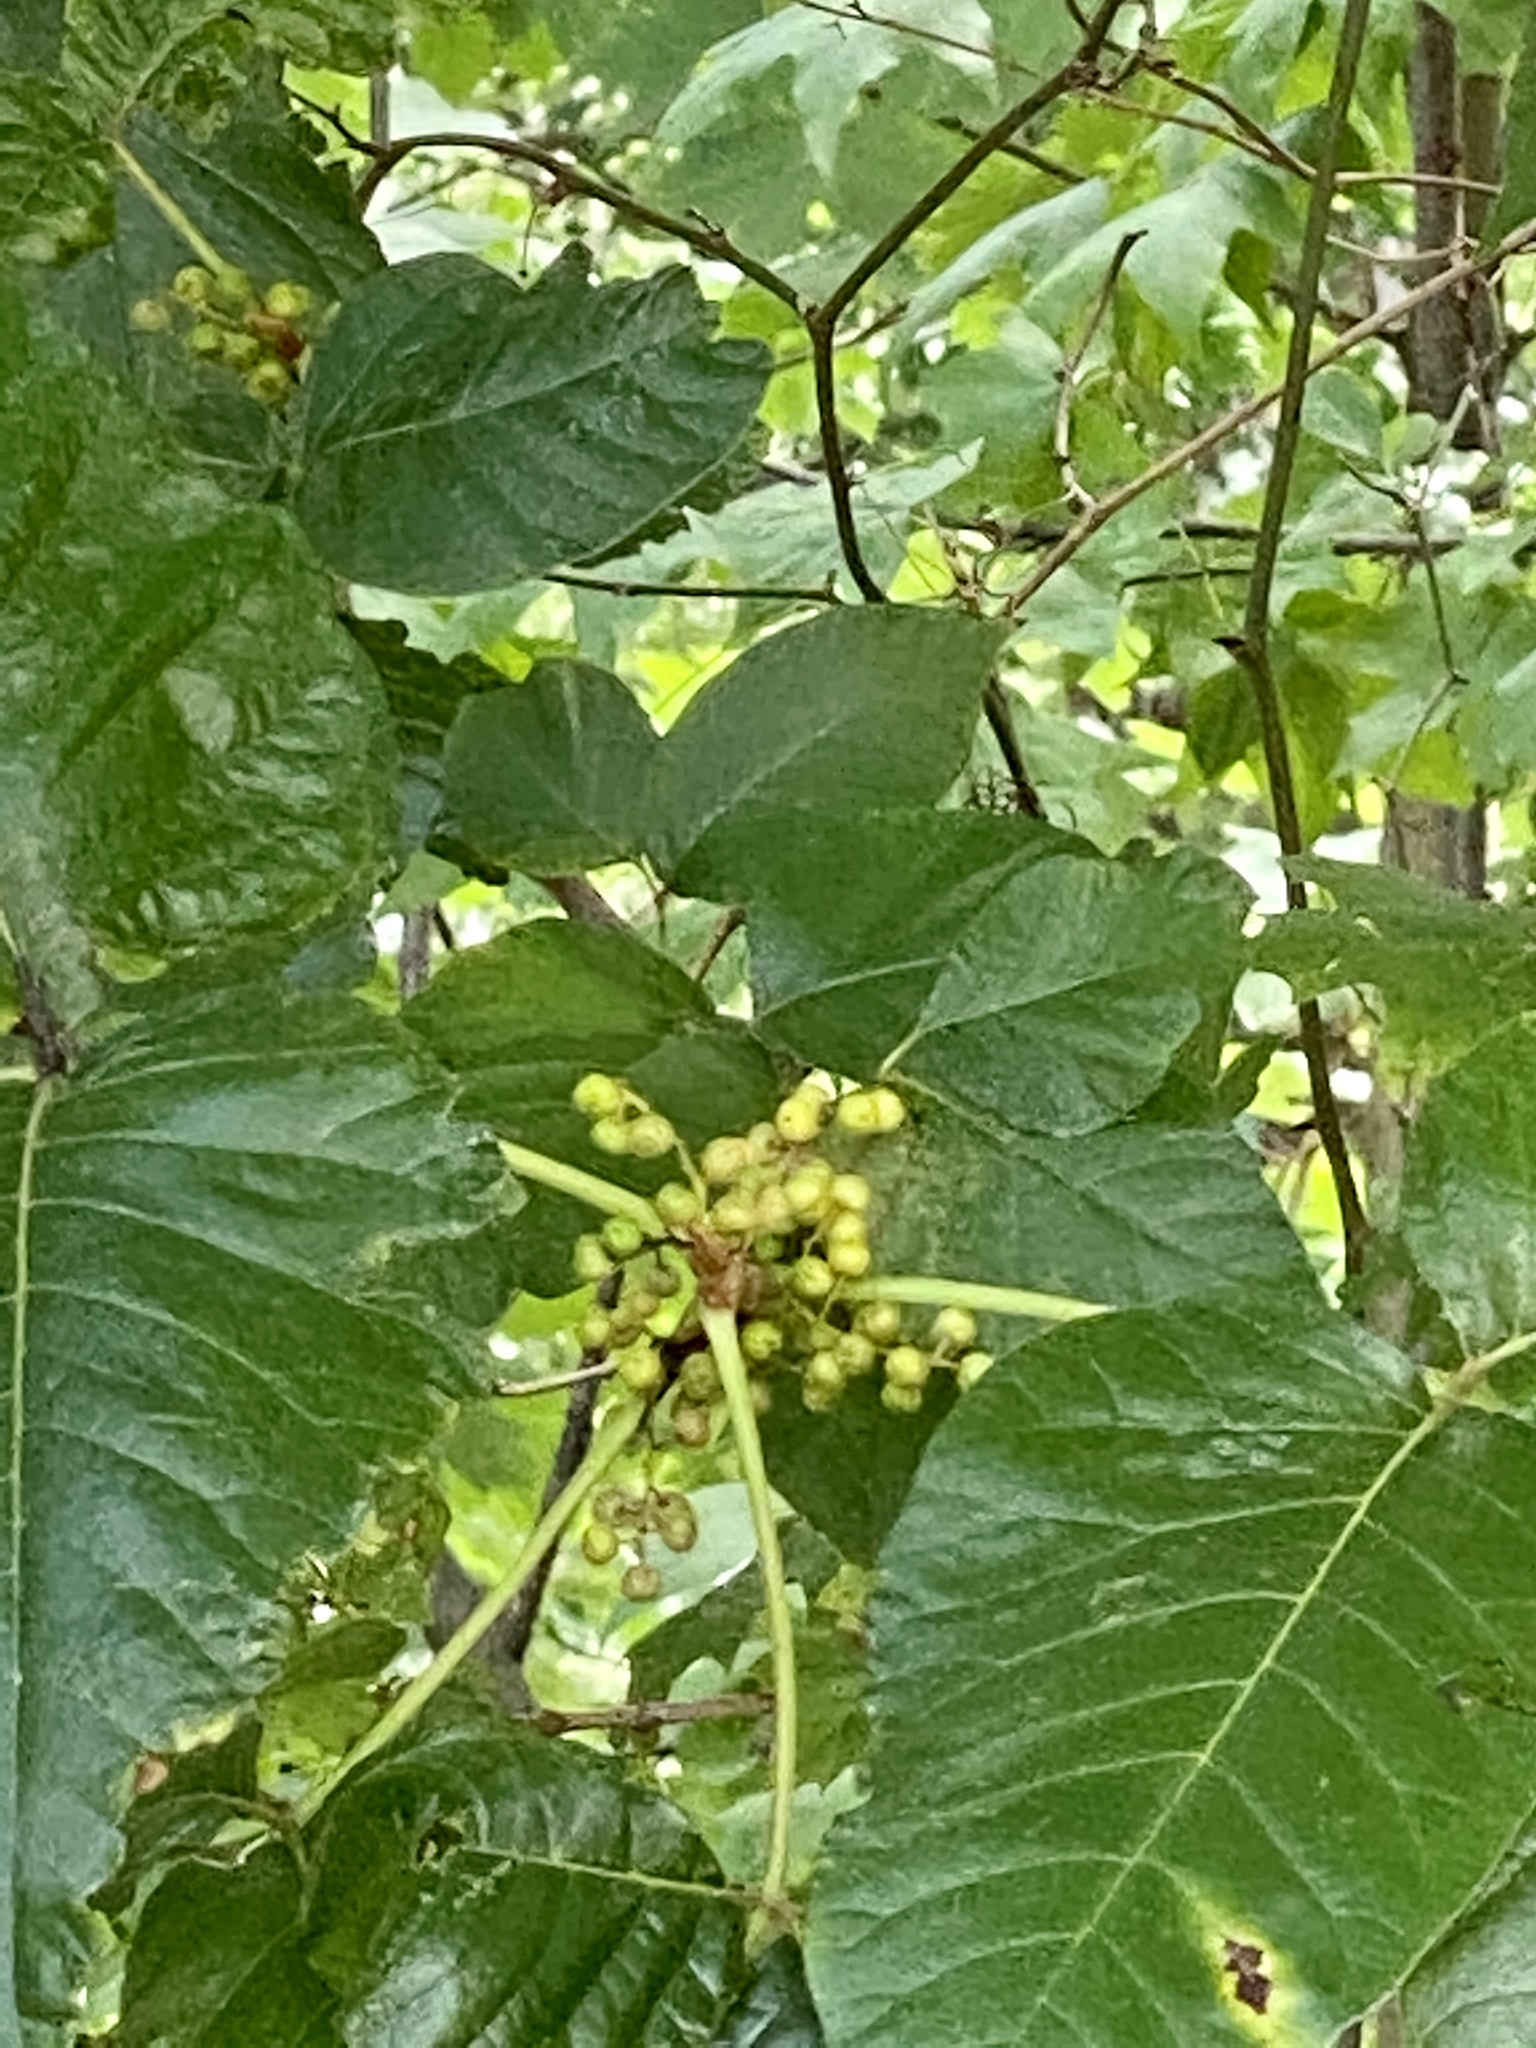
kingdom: Plantae
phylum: Tracheophyta
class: Magnoliopsida
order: Sapindales
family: Anacardiaceae
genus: Toxicodendron
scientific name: Toxicodendron radicans
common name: Poison ivy
